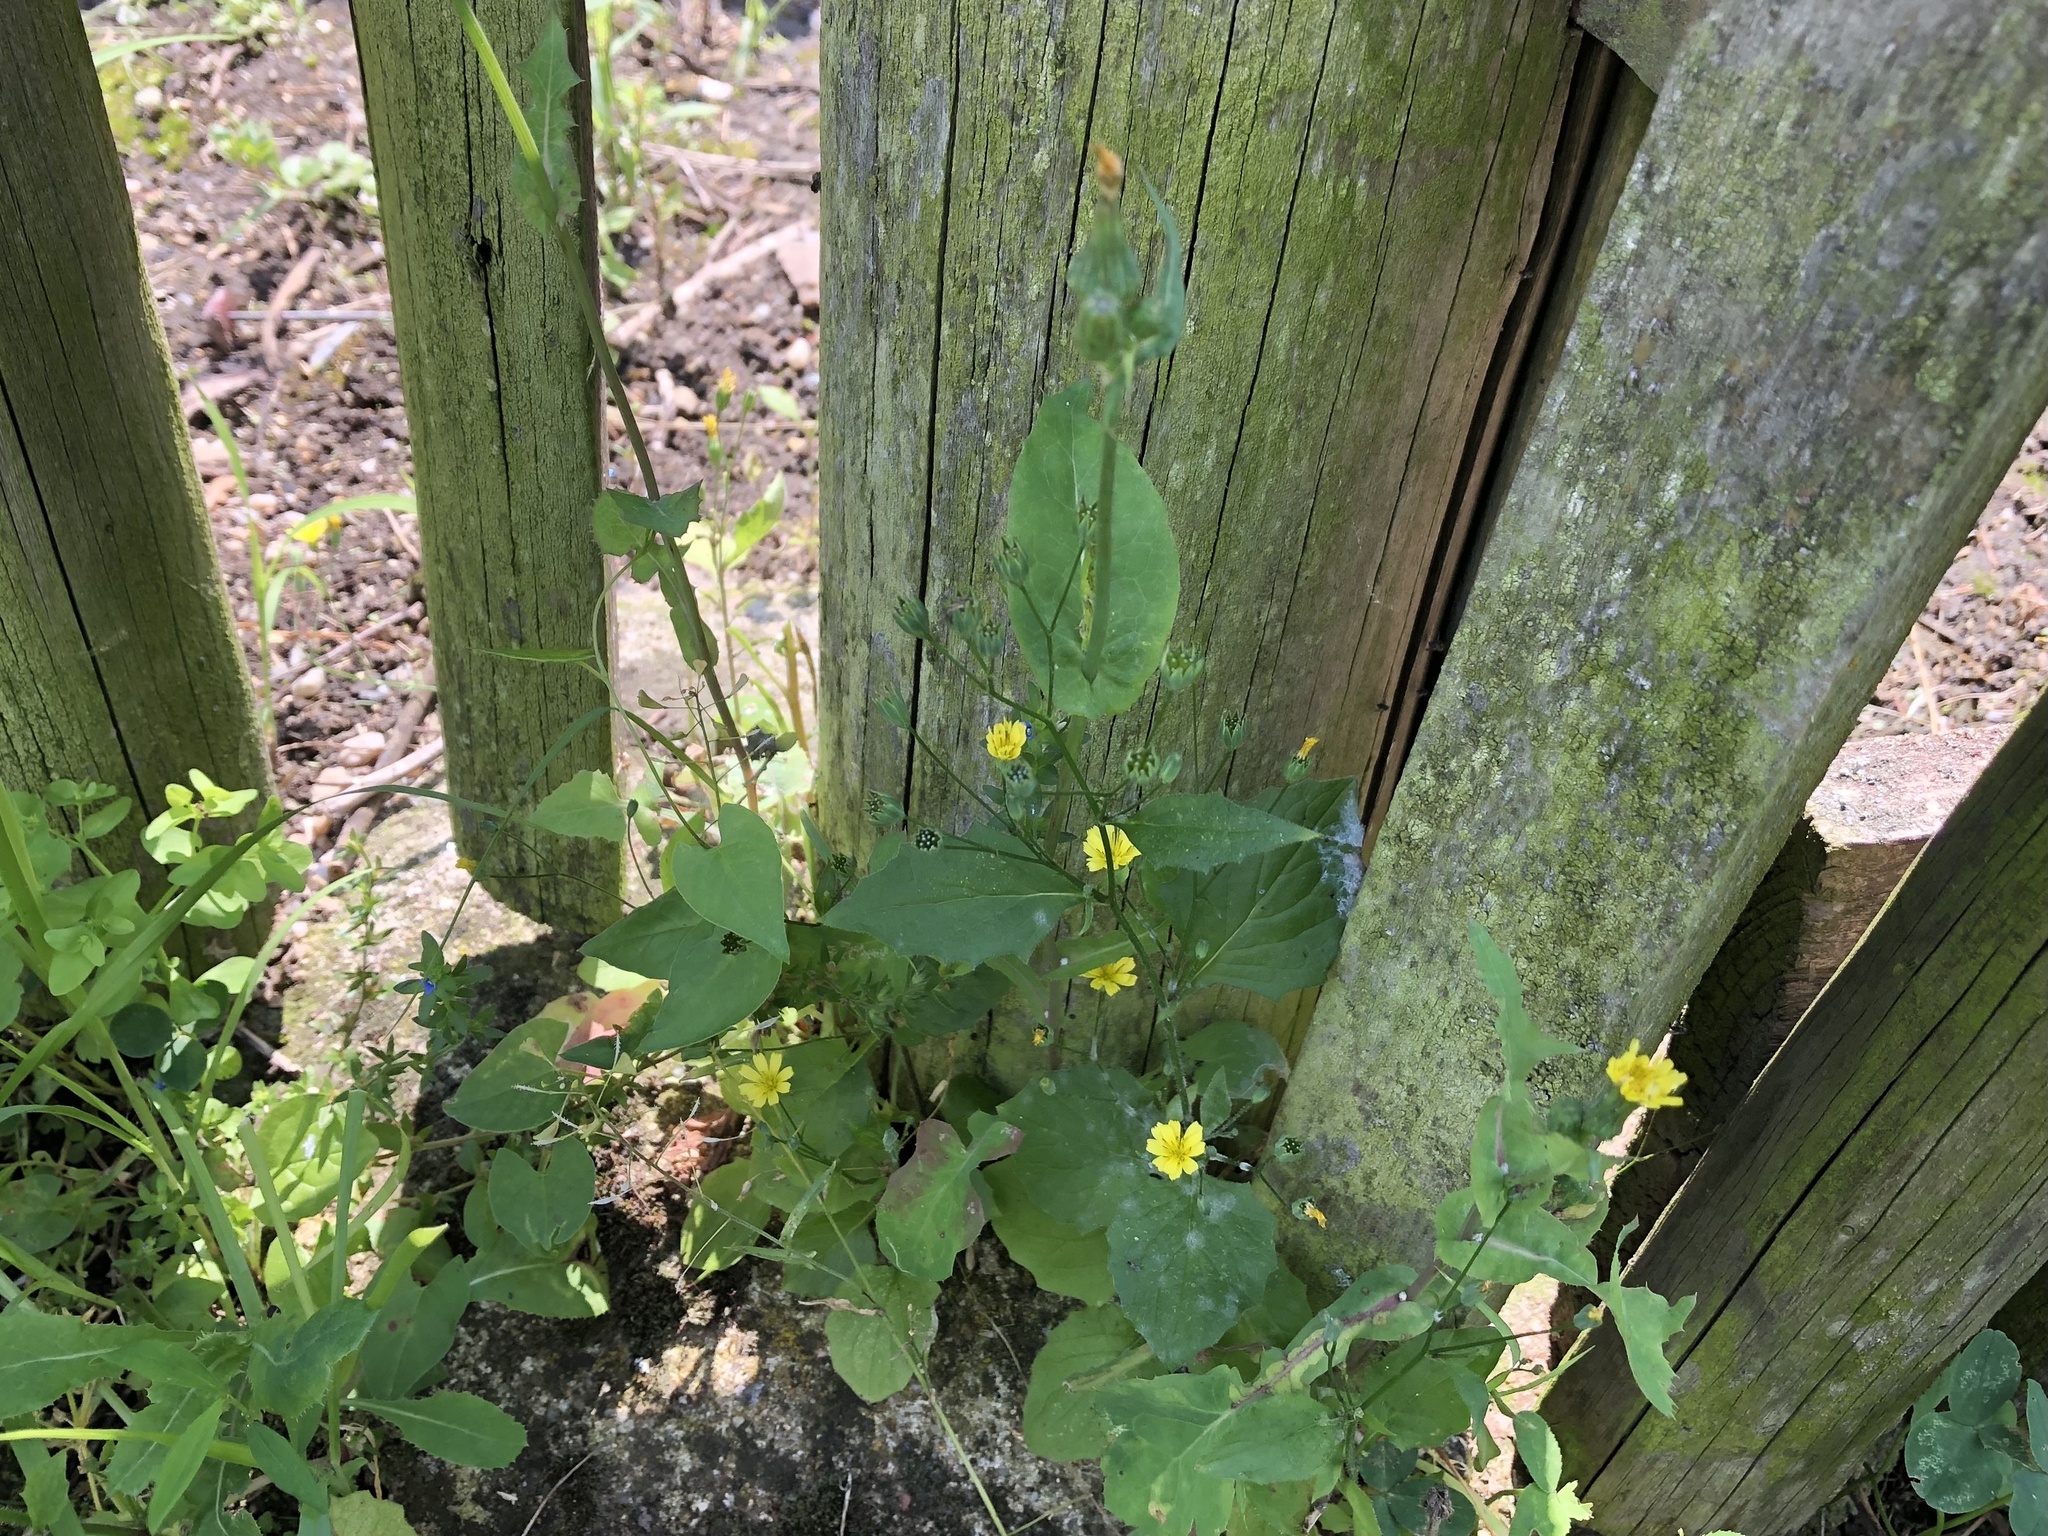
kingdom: Plantae
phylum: Tracheophyta
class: Magnoliopsida
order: Asterales
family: Asteraceae
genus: Lapsana
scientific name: Lapsana communis
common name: Nipplewort
